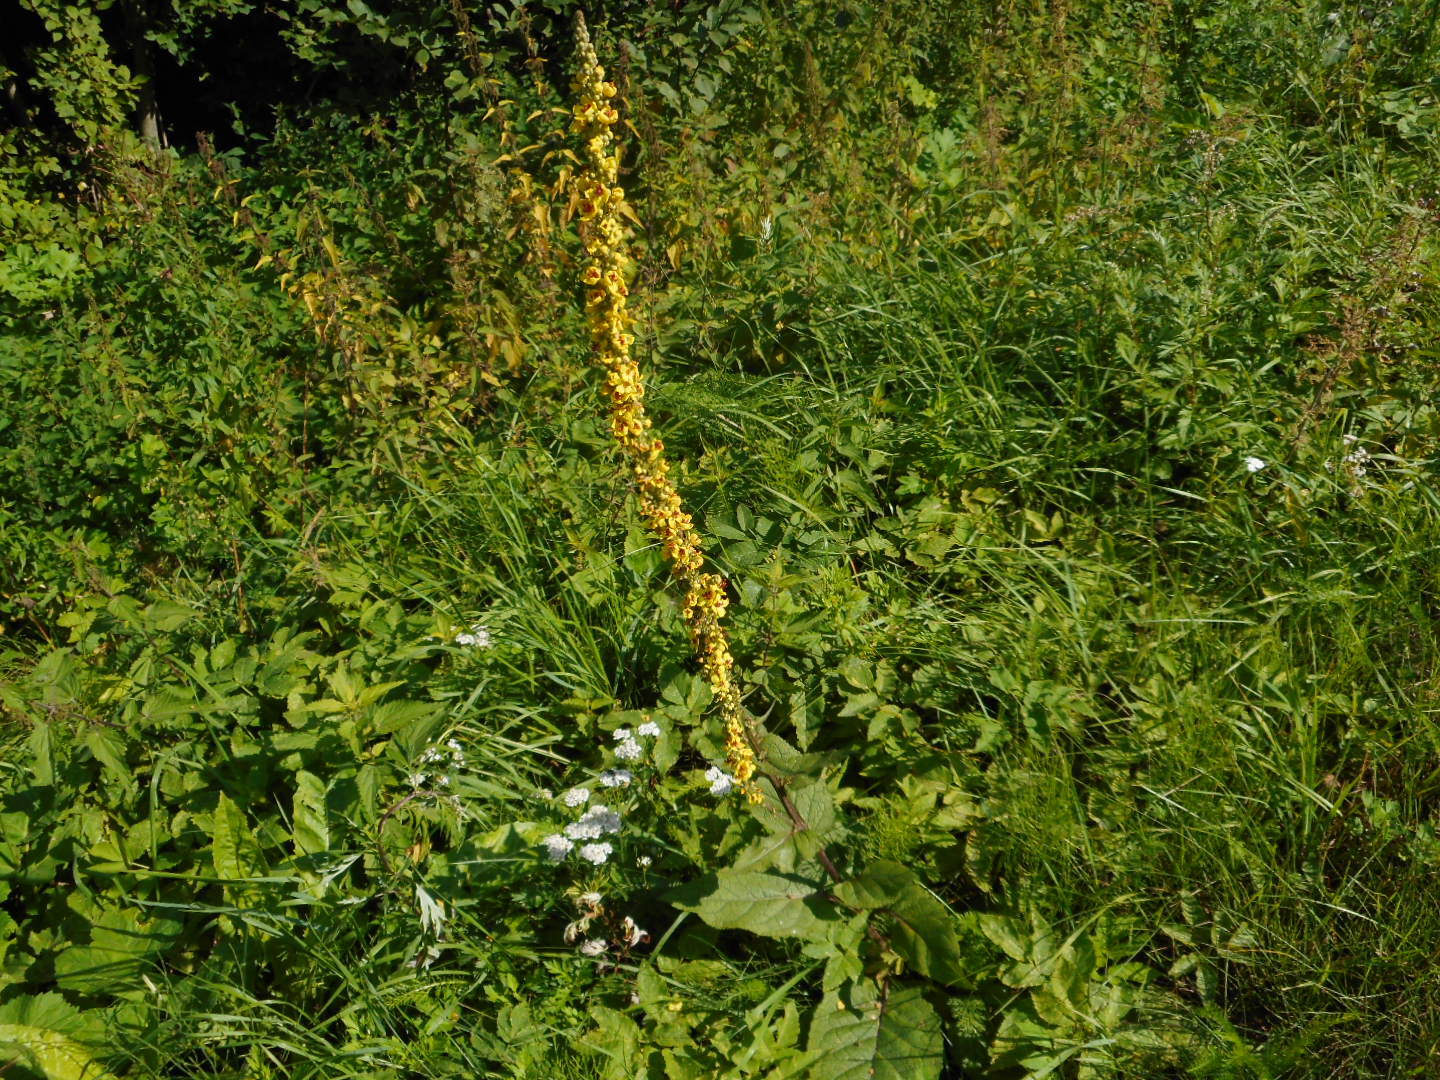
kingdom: Plantae
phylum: Tracheophyta
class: Magnoliopsida
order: Lamiales
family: Scrophulariaceae
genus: Verbascum
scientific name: Verbascum nigrum
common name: Dark mullein
